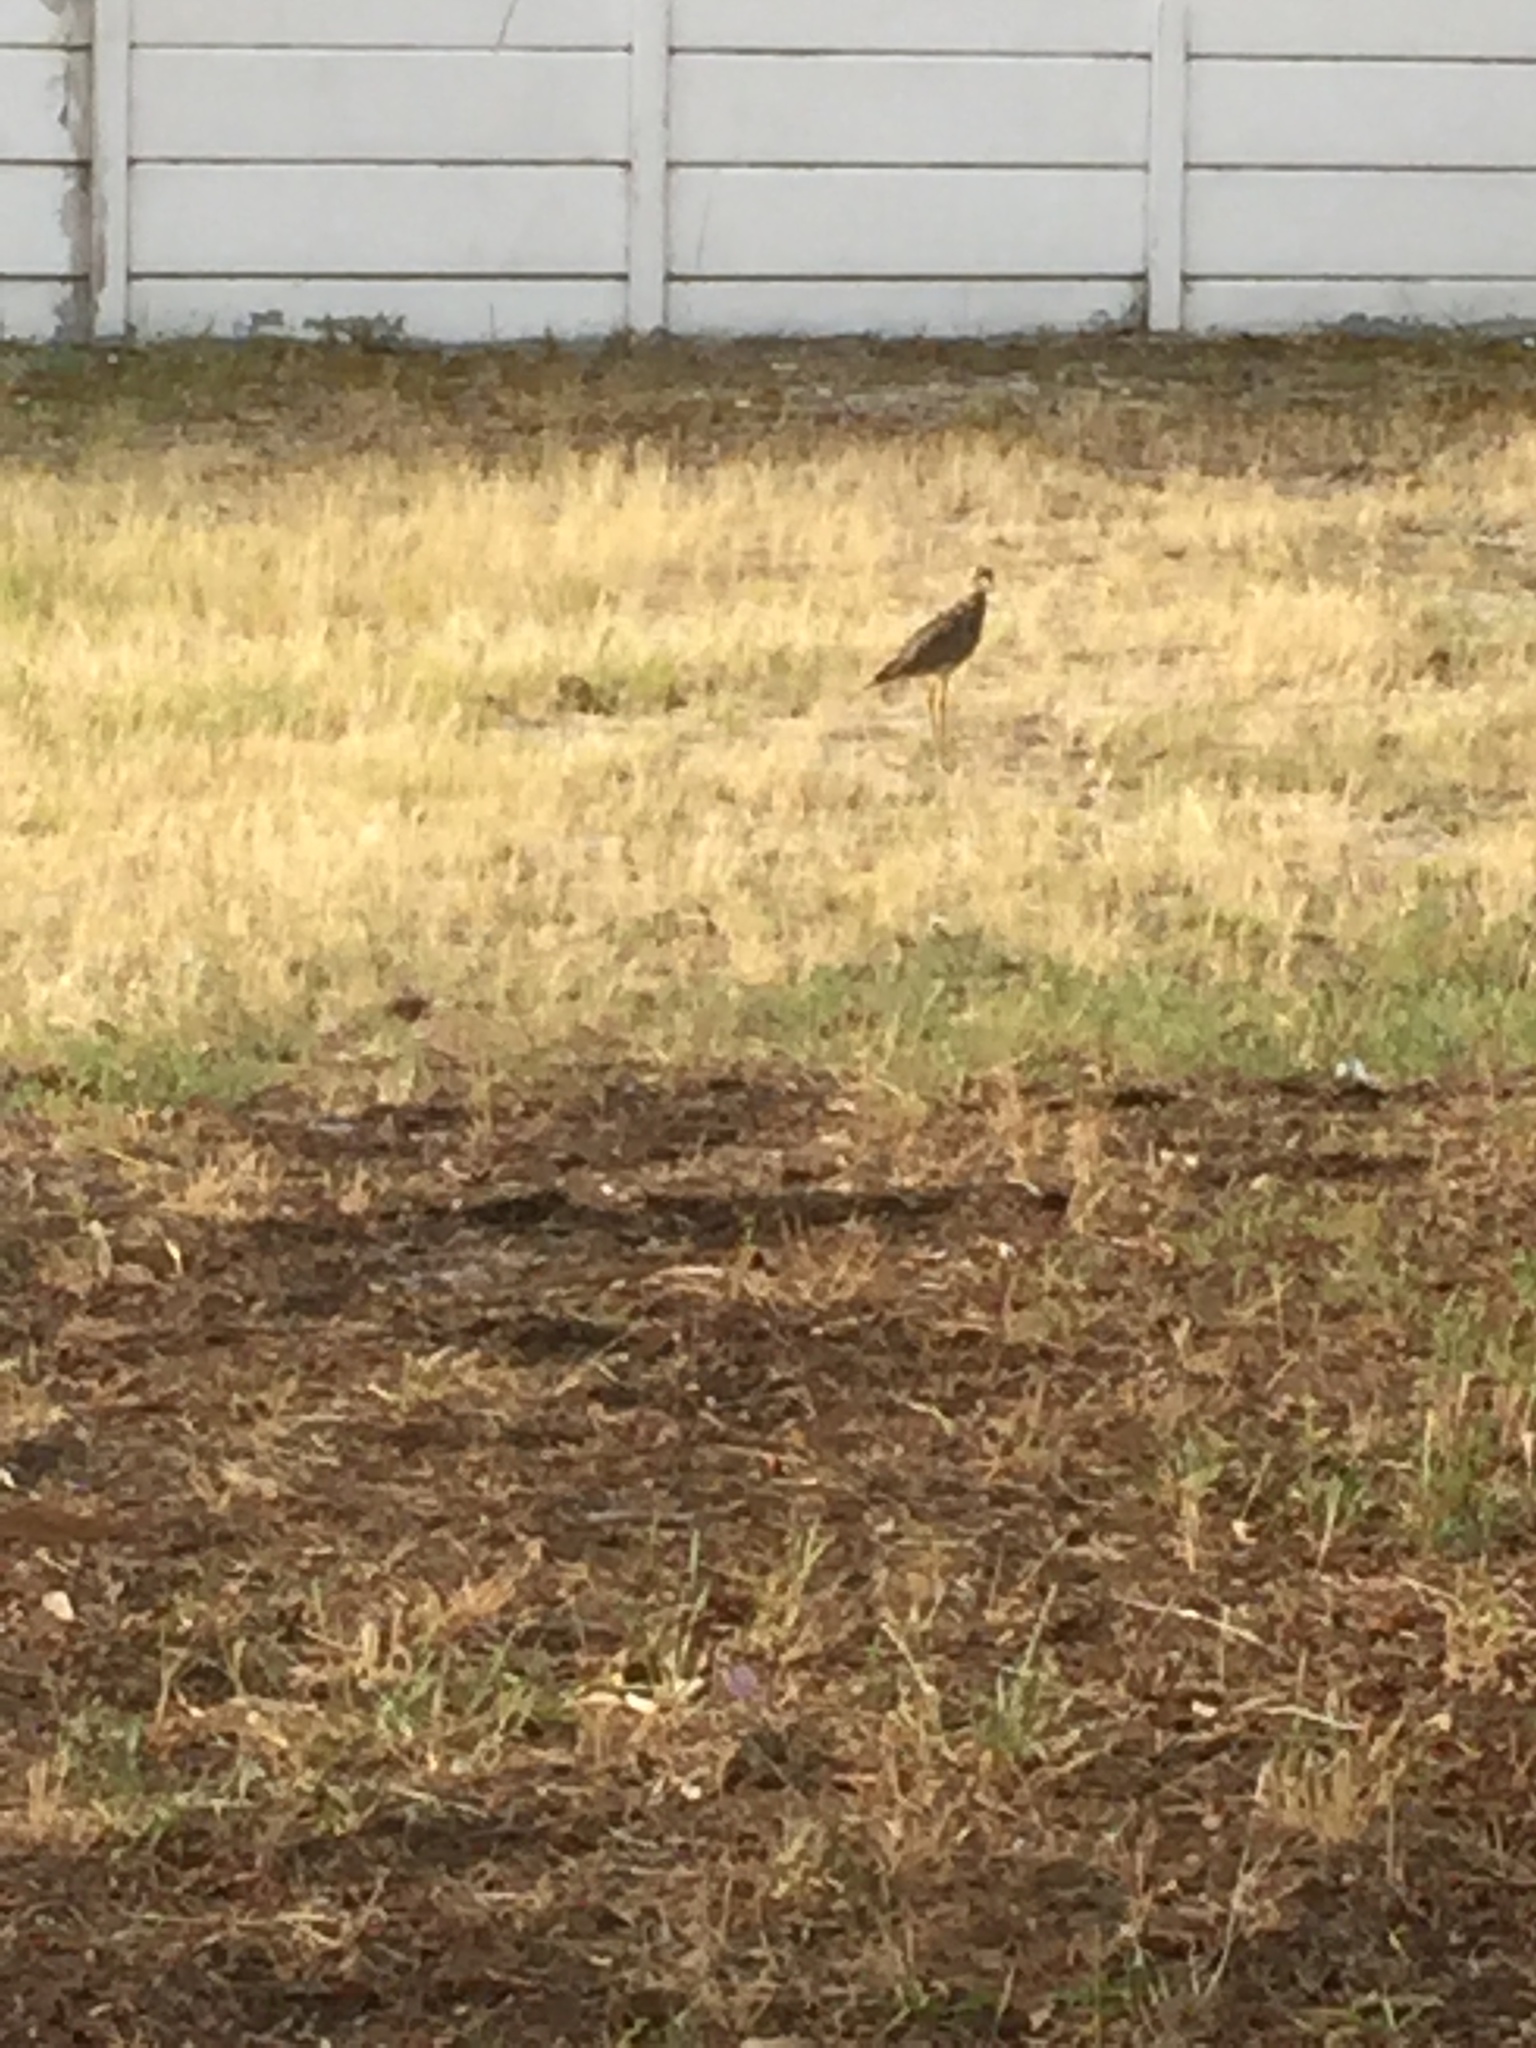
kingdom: Animalia
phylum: Chordata
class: Aves
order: Charadriiformes
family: Burhinidae
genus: Burhinus
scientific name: Burhinus capensis
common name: Spotted thick-knee
